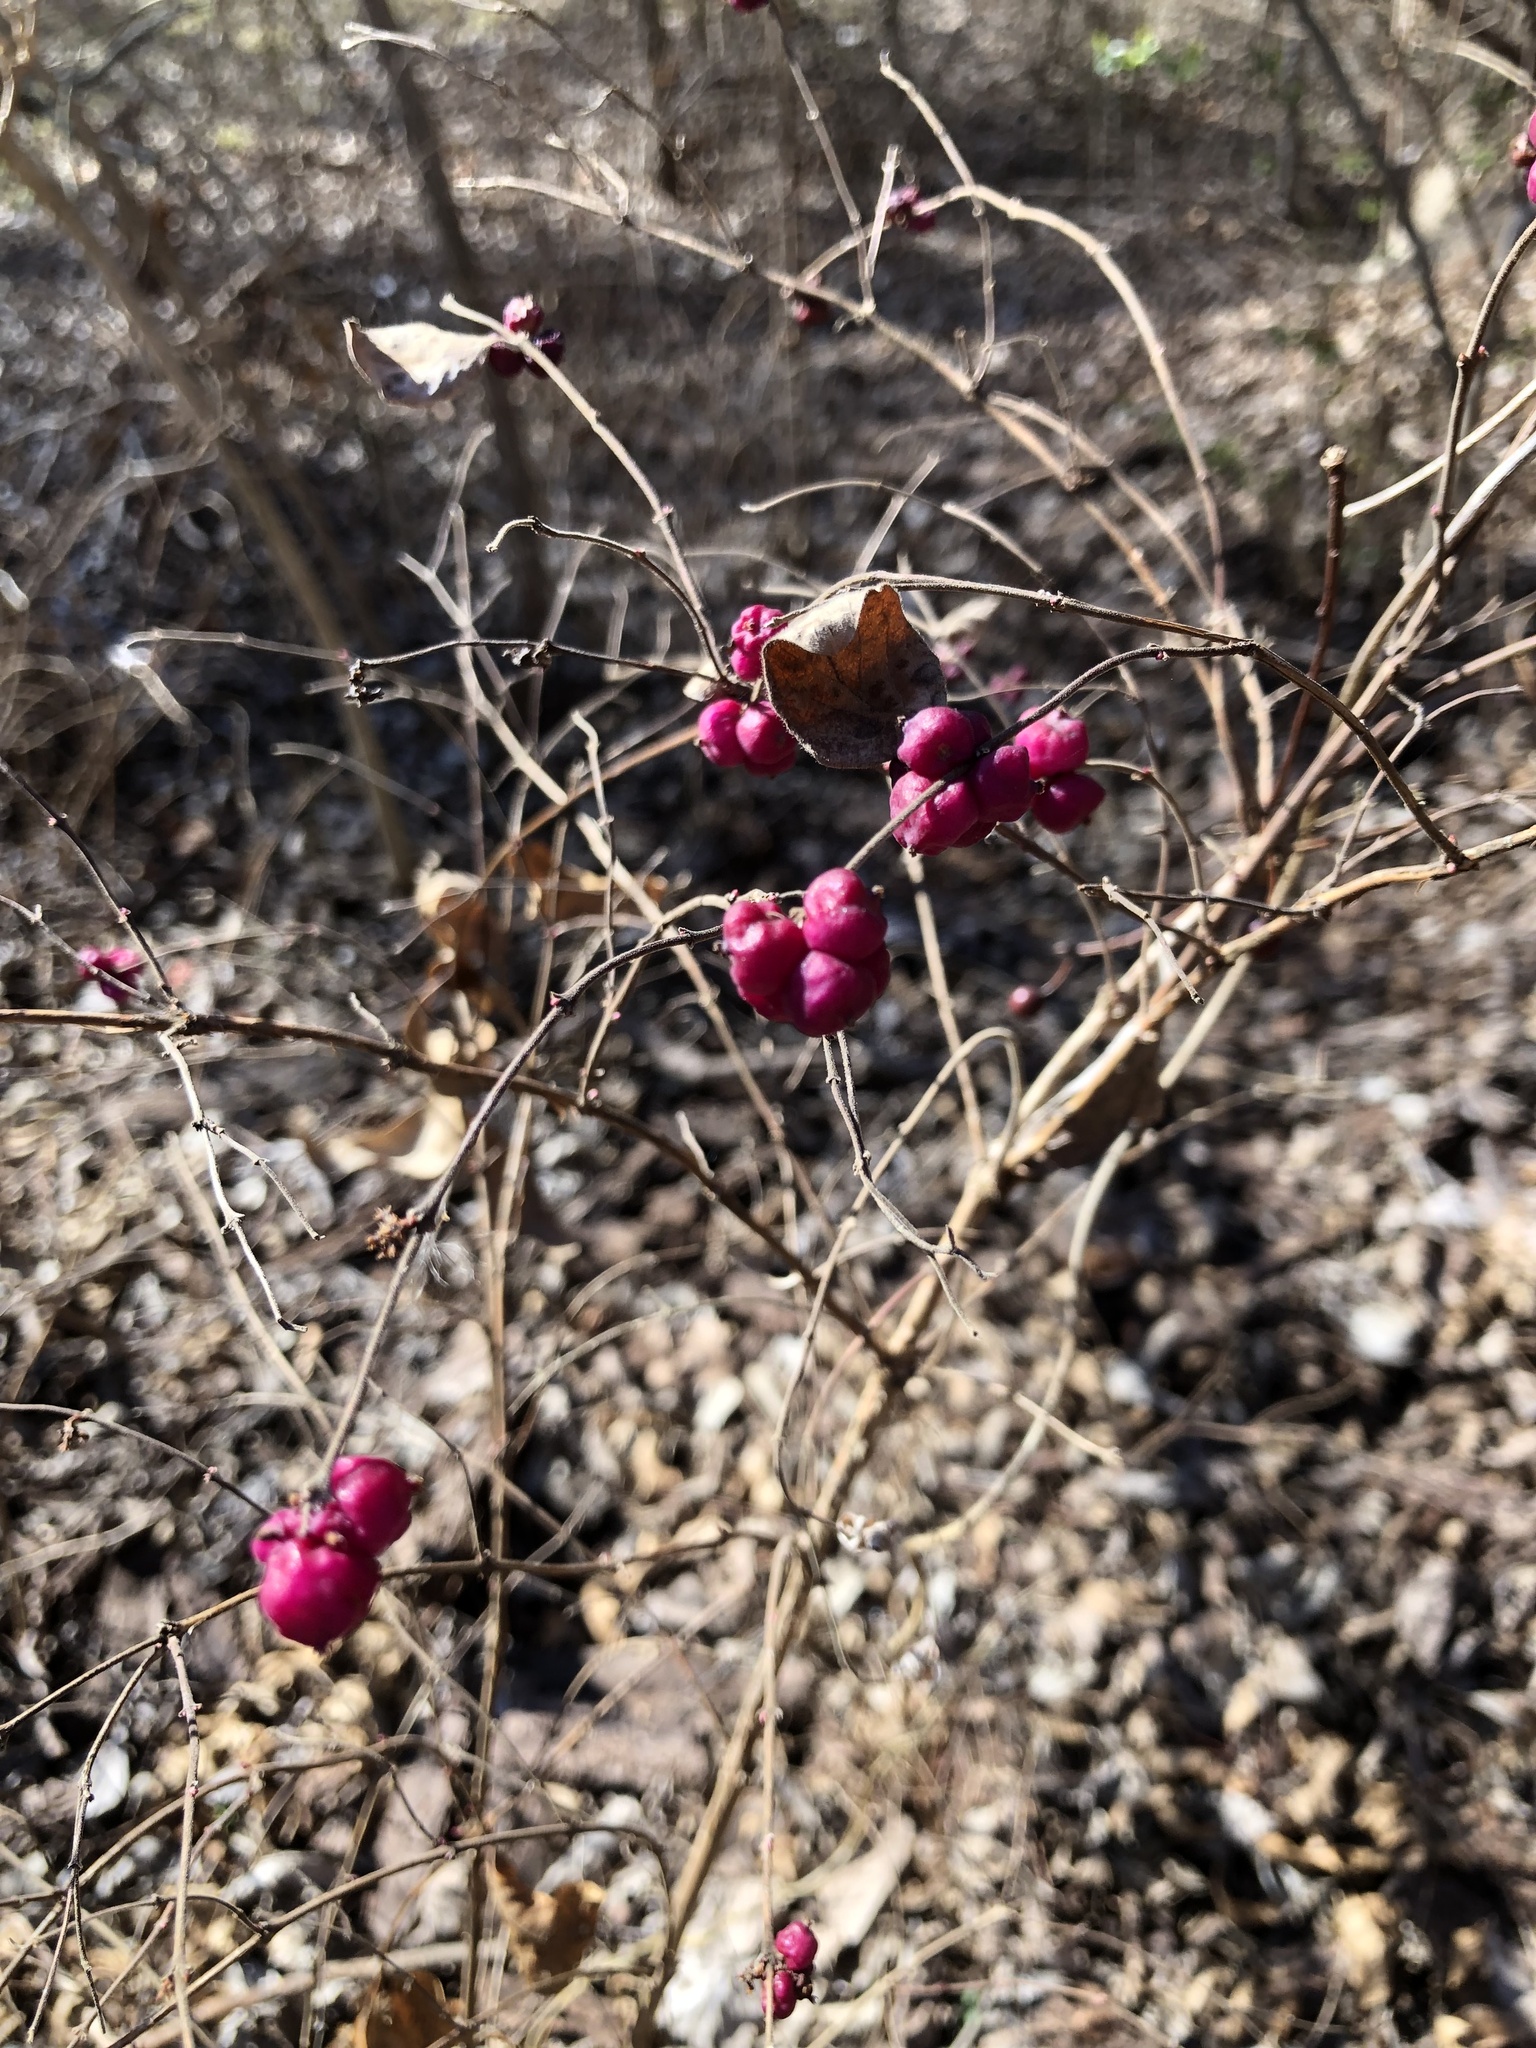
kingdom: Plantae
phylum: Tracheophyta
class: Magnoliopsida
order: Dipsacales
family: Caprifoliaceae
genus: Symphoricarpos
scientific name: Symphoricarpos orbiculatus
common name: Coralberry
